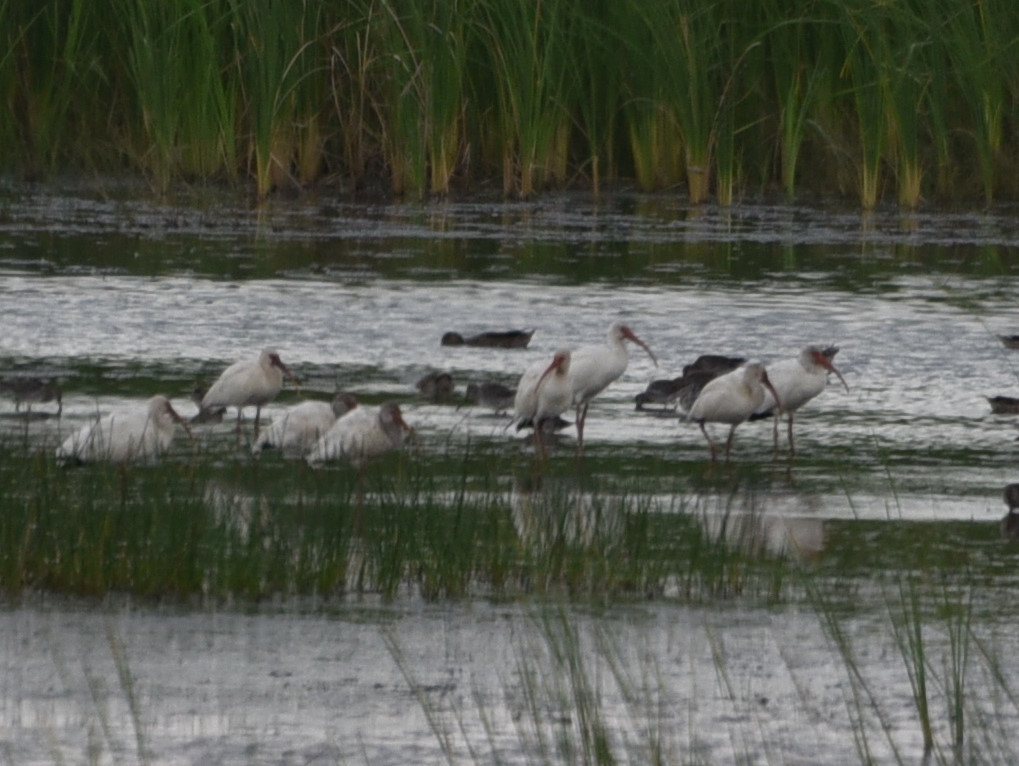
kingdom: Animalia
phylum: Chordata
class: Aves
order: Pelecaniformes
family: Threskiornithidae
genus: Eudocimus
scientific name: Eudocimus albus
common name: White ibis
